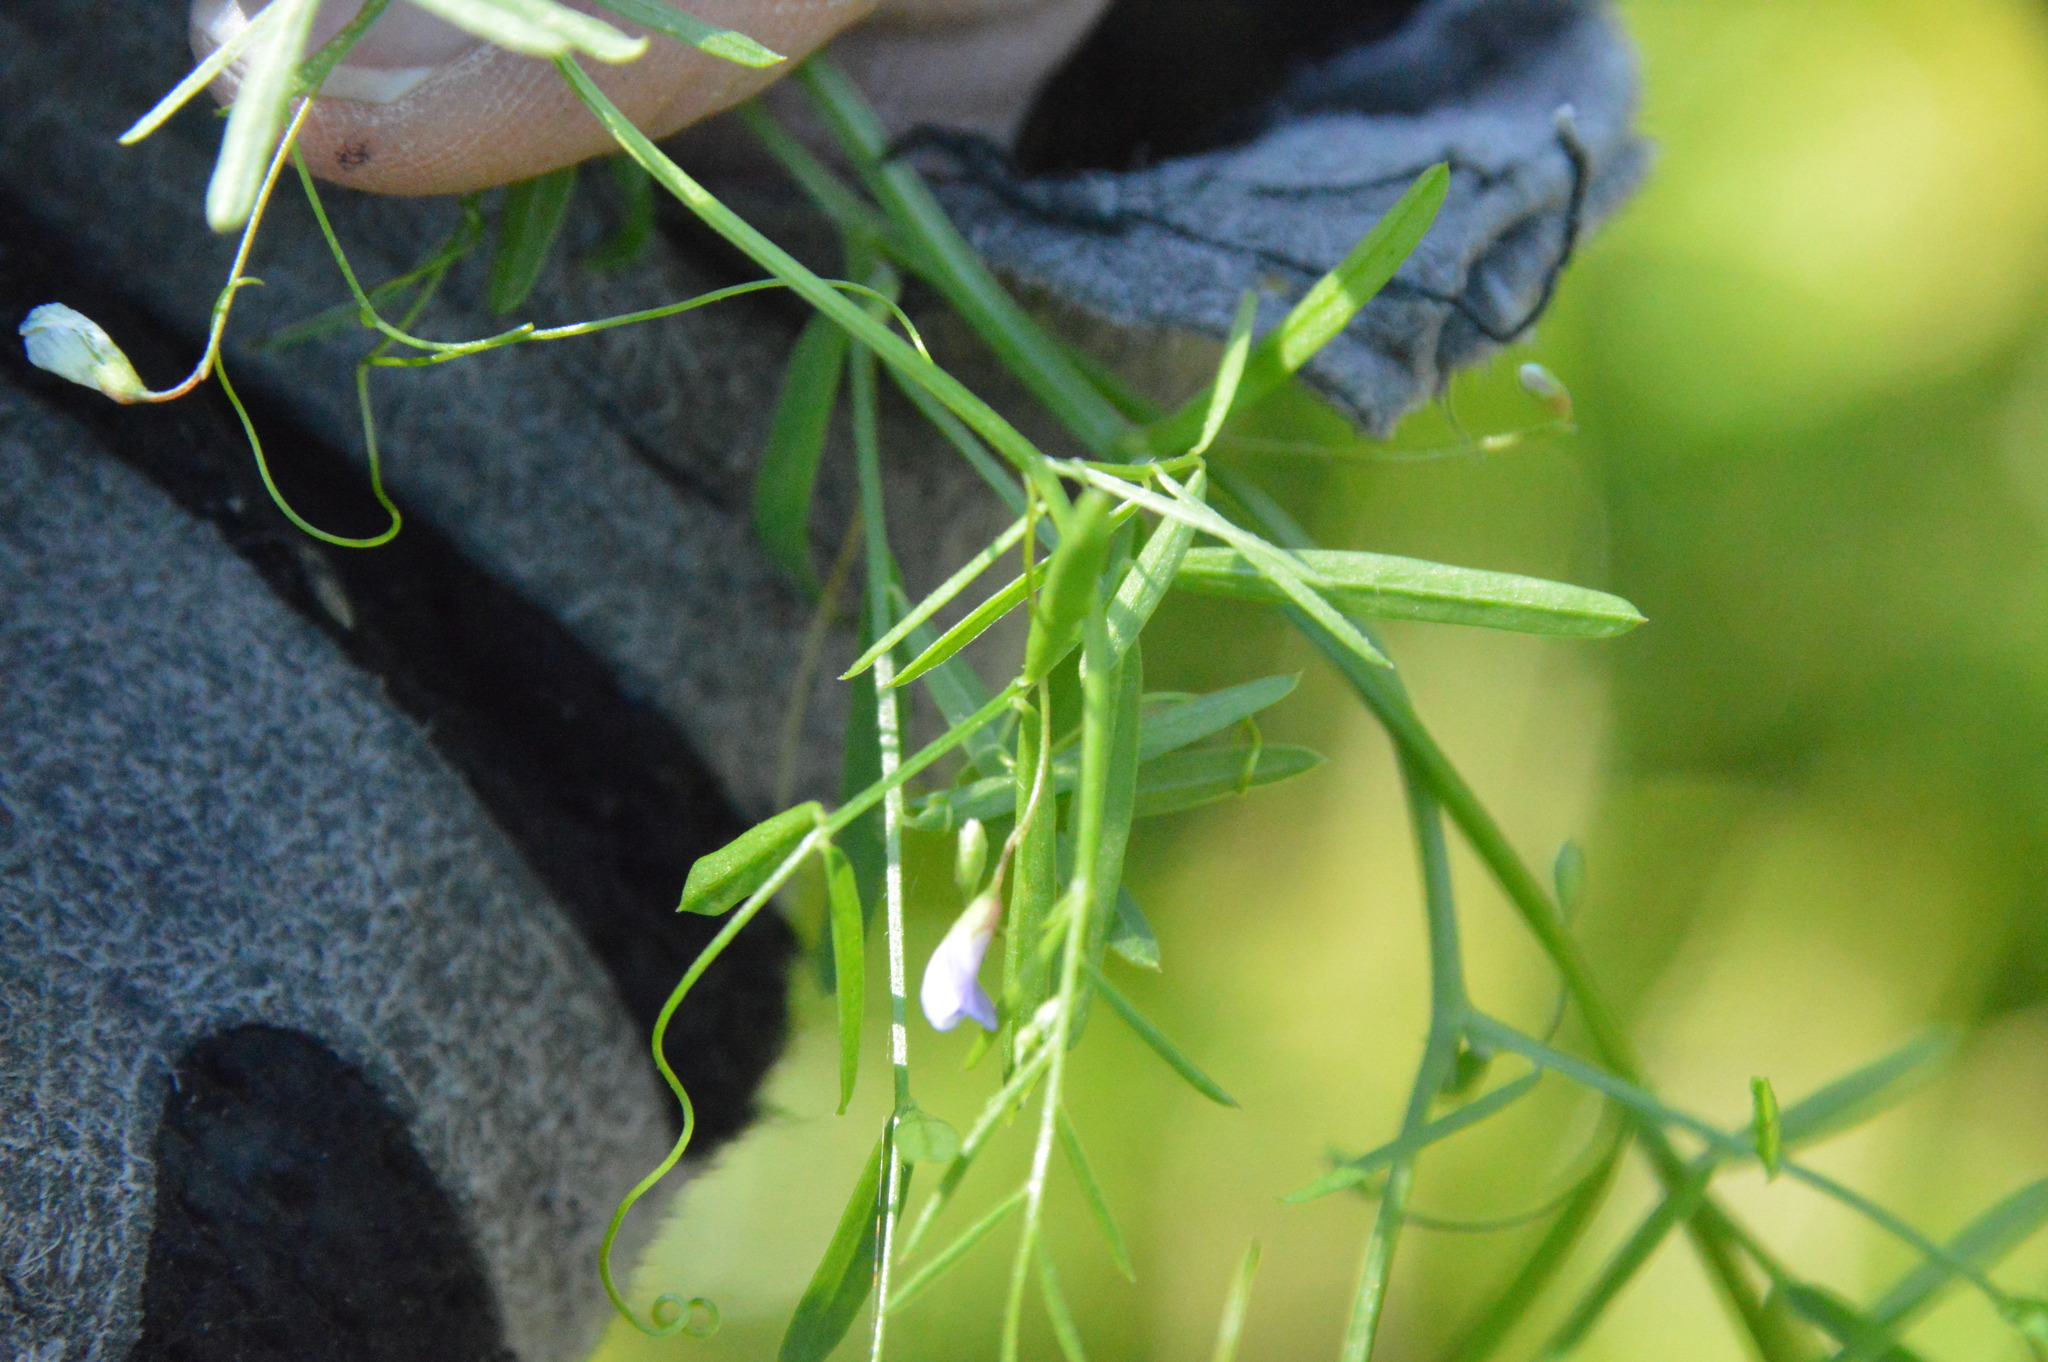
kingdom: Plantae
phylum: Tracheophyta
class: Magnoliopsida
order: Fabales
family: Fabaceae
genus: Vicia
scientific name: Vicia tetrasperma
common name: Smooth tare
